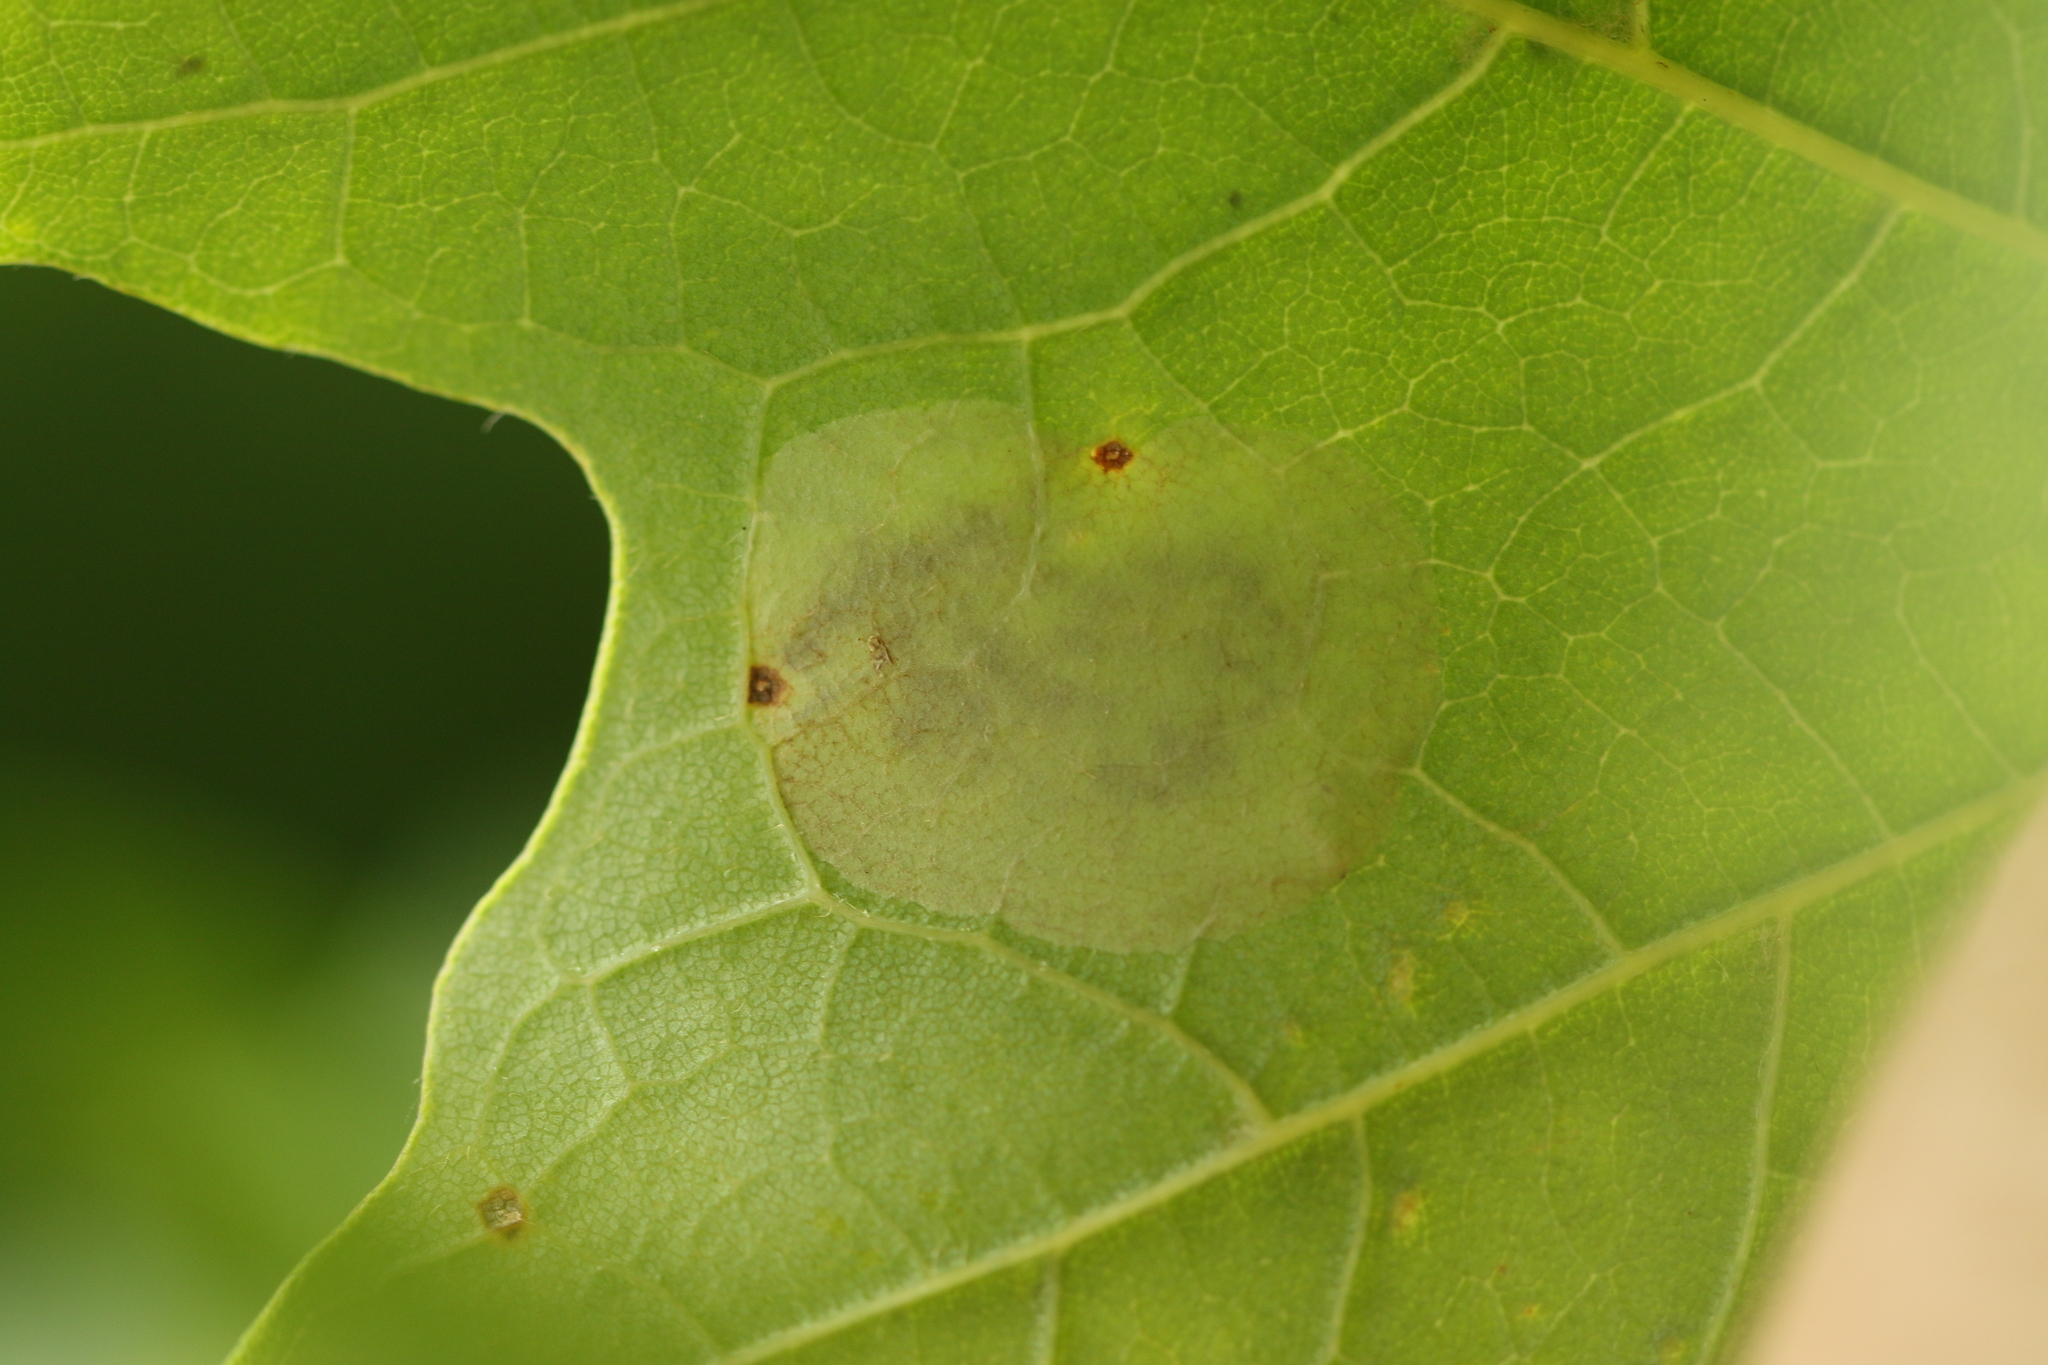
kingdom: Animalia
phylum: Arthropoda
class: Insecta
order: Lepidoptera
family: Gracillariidae
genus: Cameraria
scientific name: Cameraria aceriella
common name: Maple leafblotch miner
